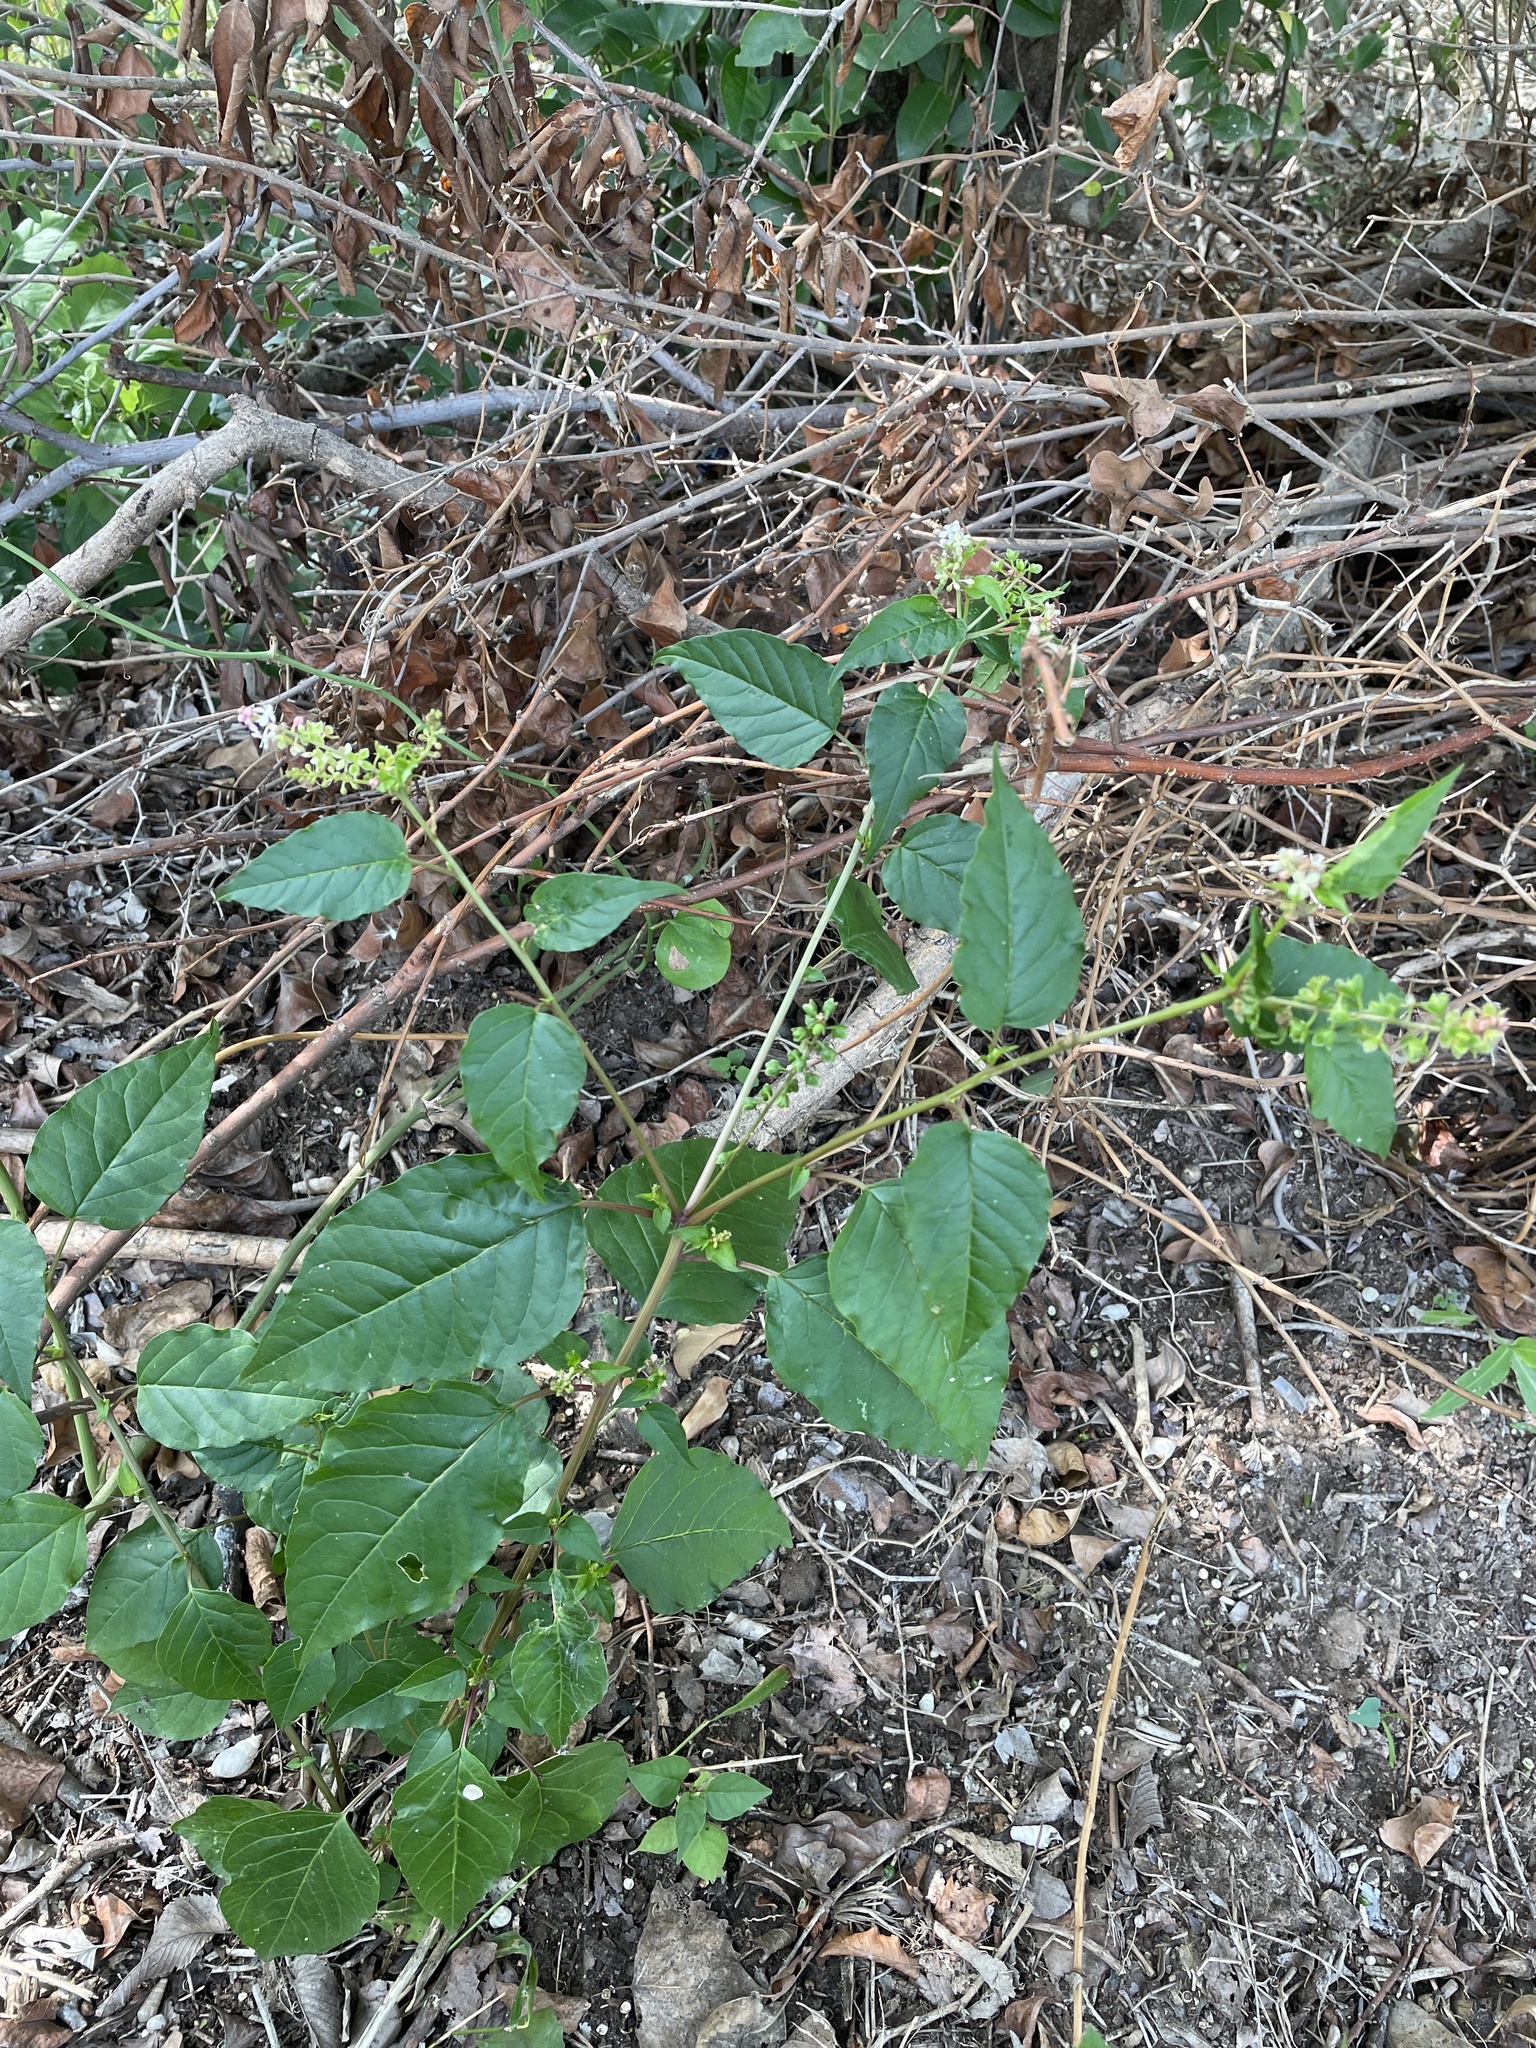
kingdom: Plantae
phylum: Tracheophyta
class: Magnoliopsida
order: Caryophyllales
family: Phytolaccaceae
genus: Rivina
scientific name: Rivina humilis
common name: Rougeplant
